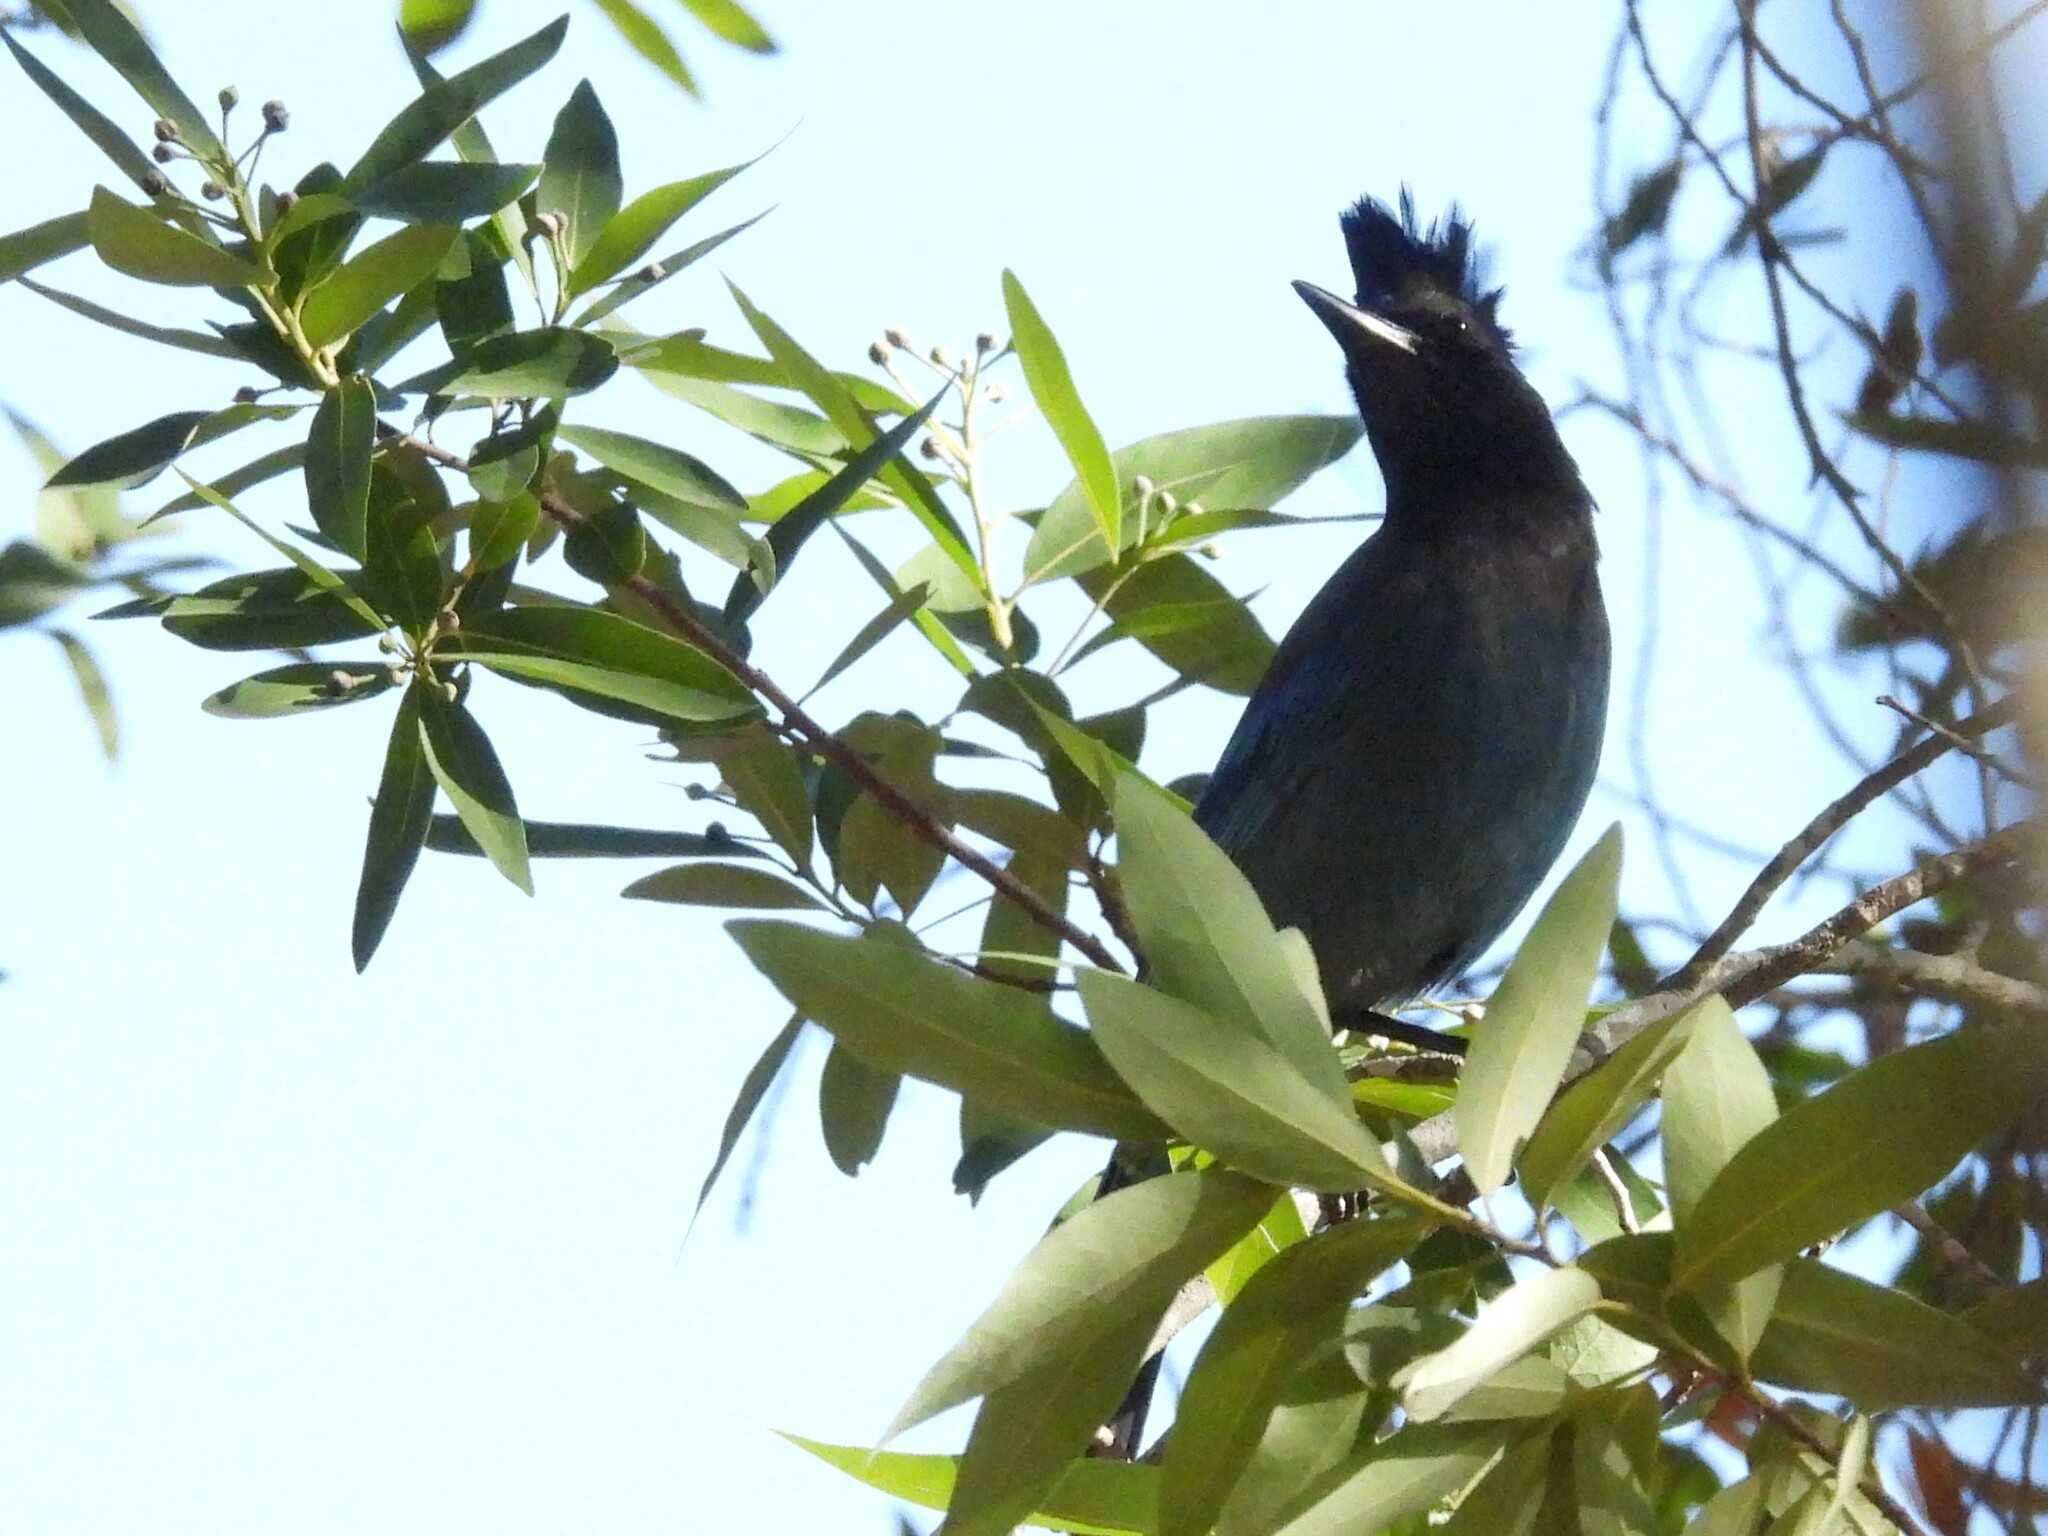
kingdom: Animalia
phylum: Chordata
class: Aves
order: Passeriformes
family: Corvidae
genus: Cyanocitta
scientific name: Cyanocitta stelleri
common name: Steller's jay
